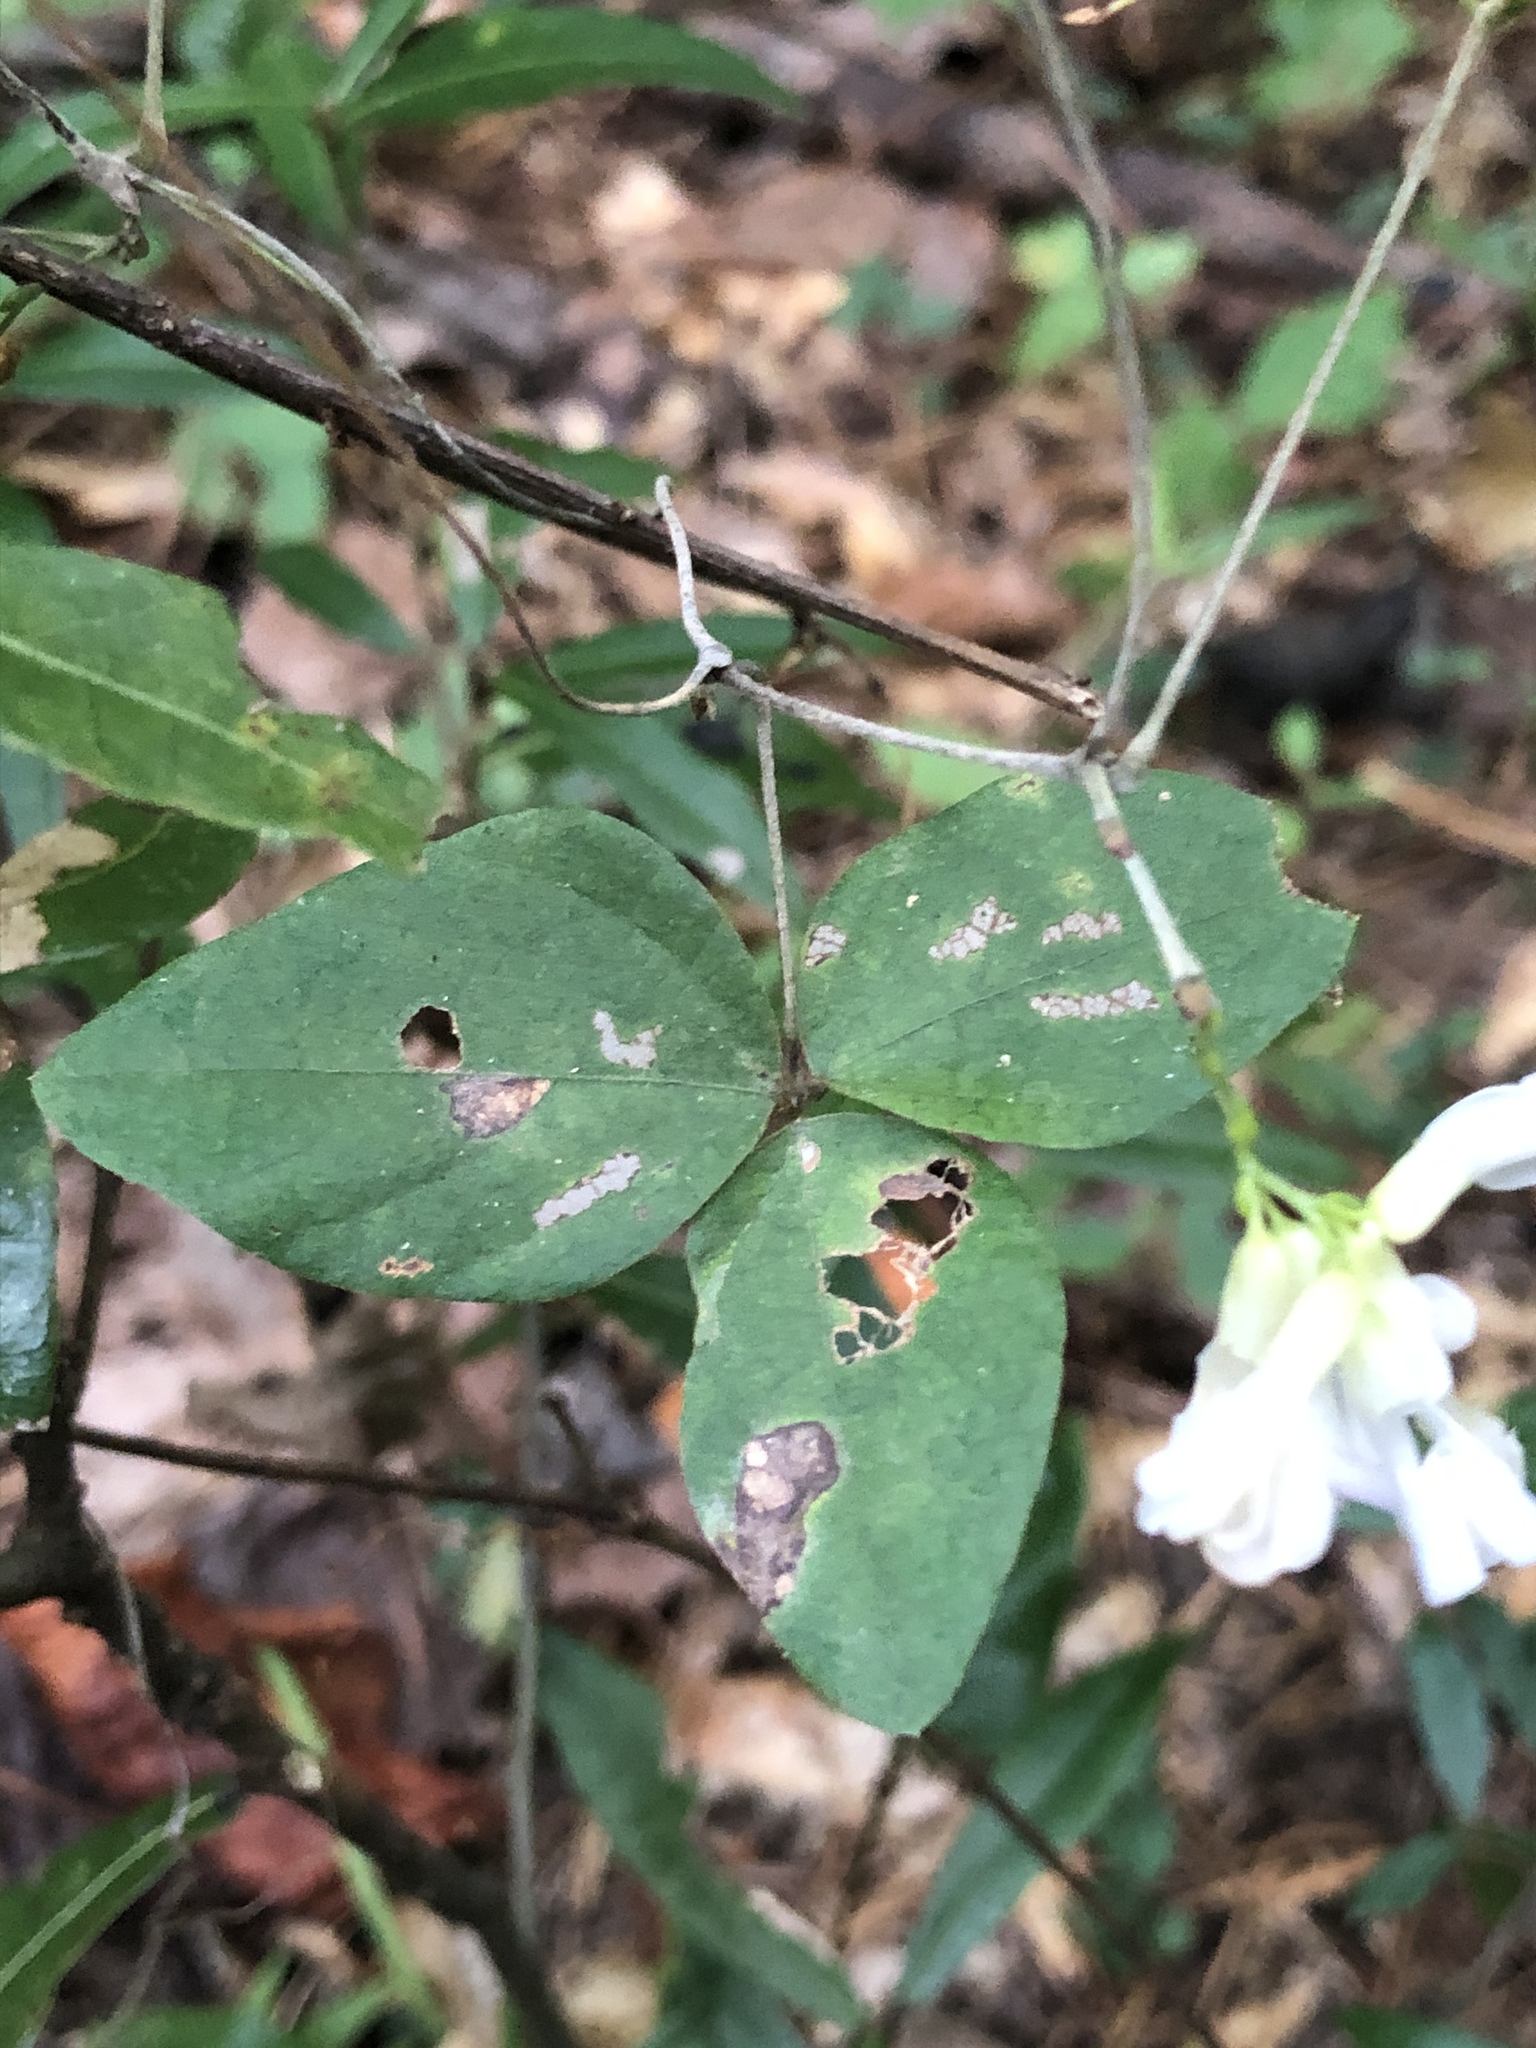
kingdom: Plantae
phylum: Tracheophyta
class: Magnoliopsida
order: Fabales
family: Fabaceae
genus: Amphicarpaea
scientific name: Amphicarpaea bracteata
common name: American hog peanut
